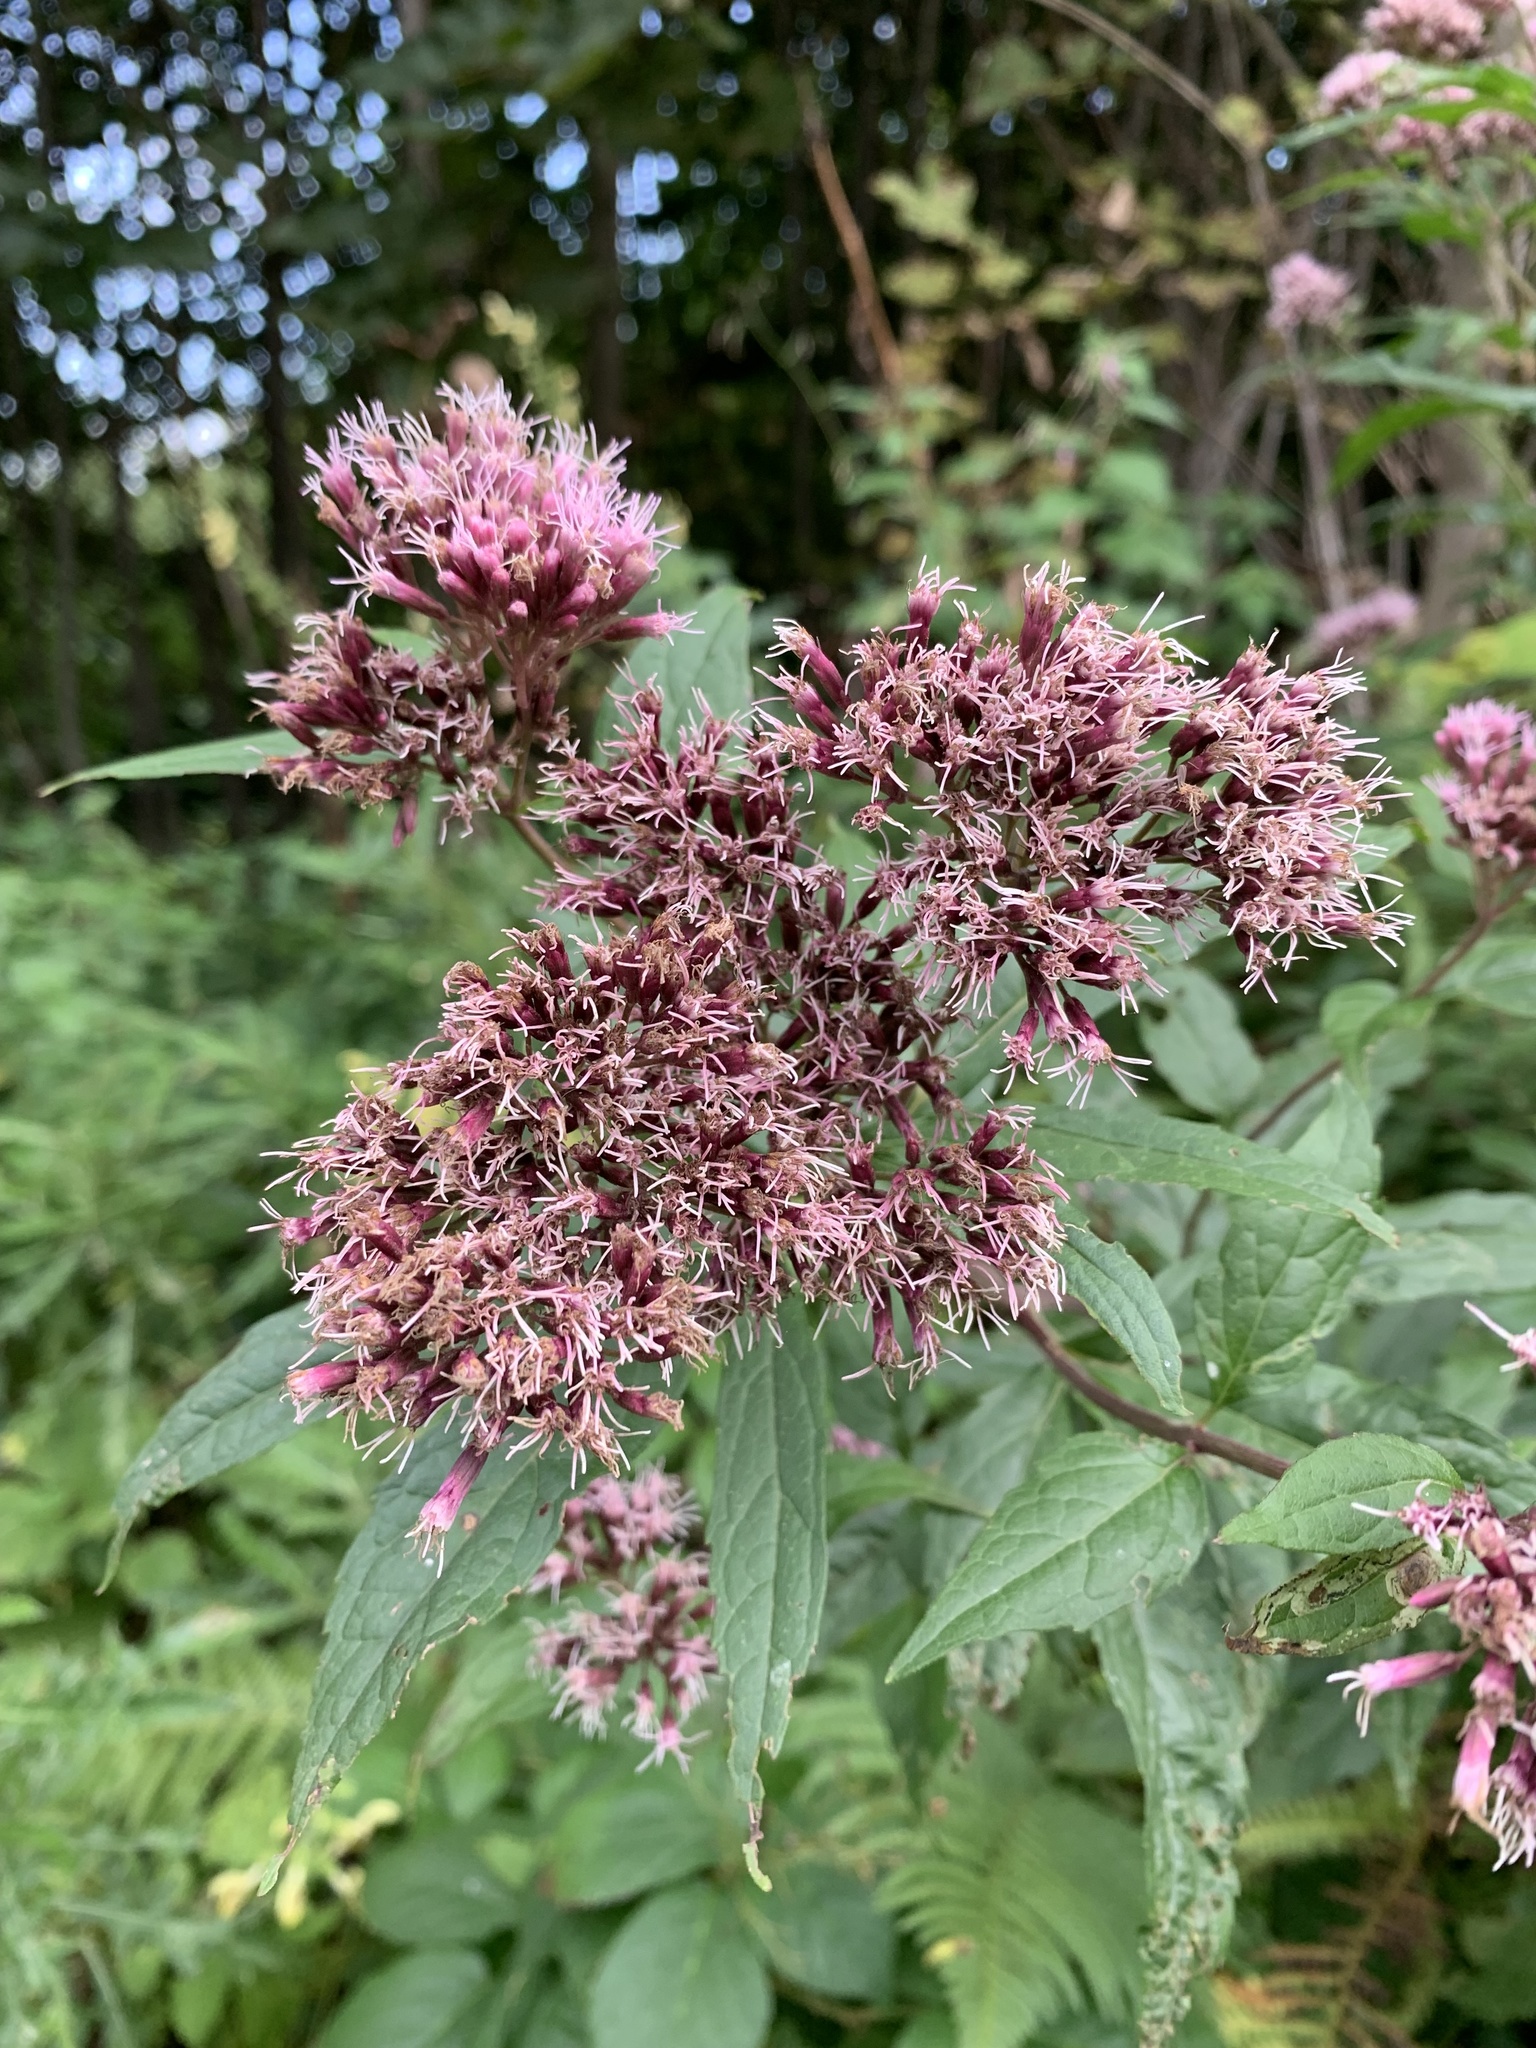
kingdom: Plantae
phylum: Tracheophyta
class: Magnoliopsida
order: Asterales
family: Asteraceae
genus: Eupatorium
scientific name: Eupatorium cannabinum
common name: Hemp-agrimony
